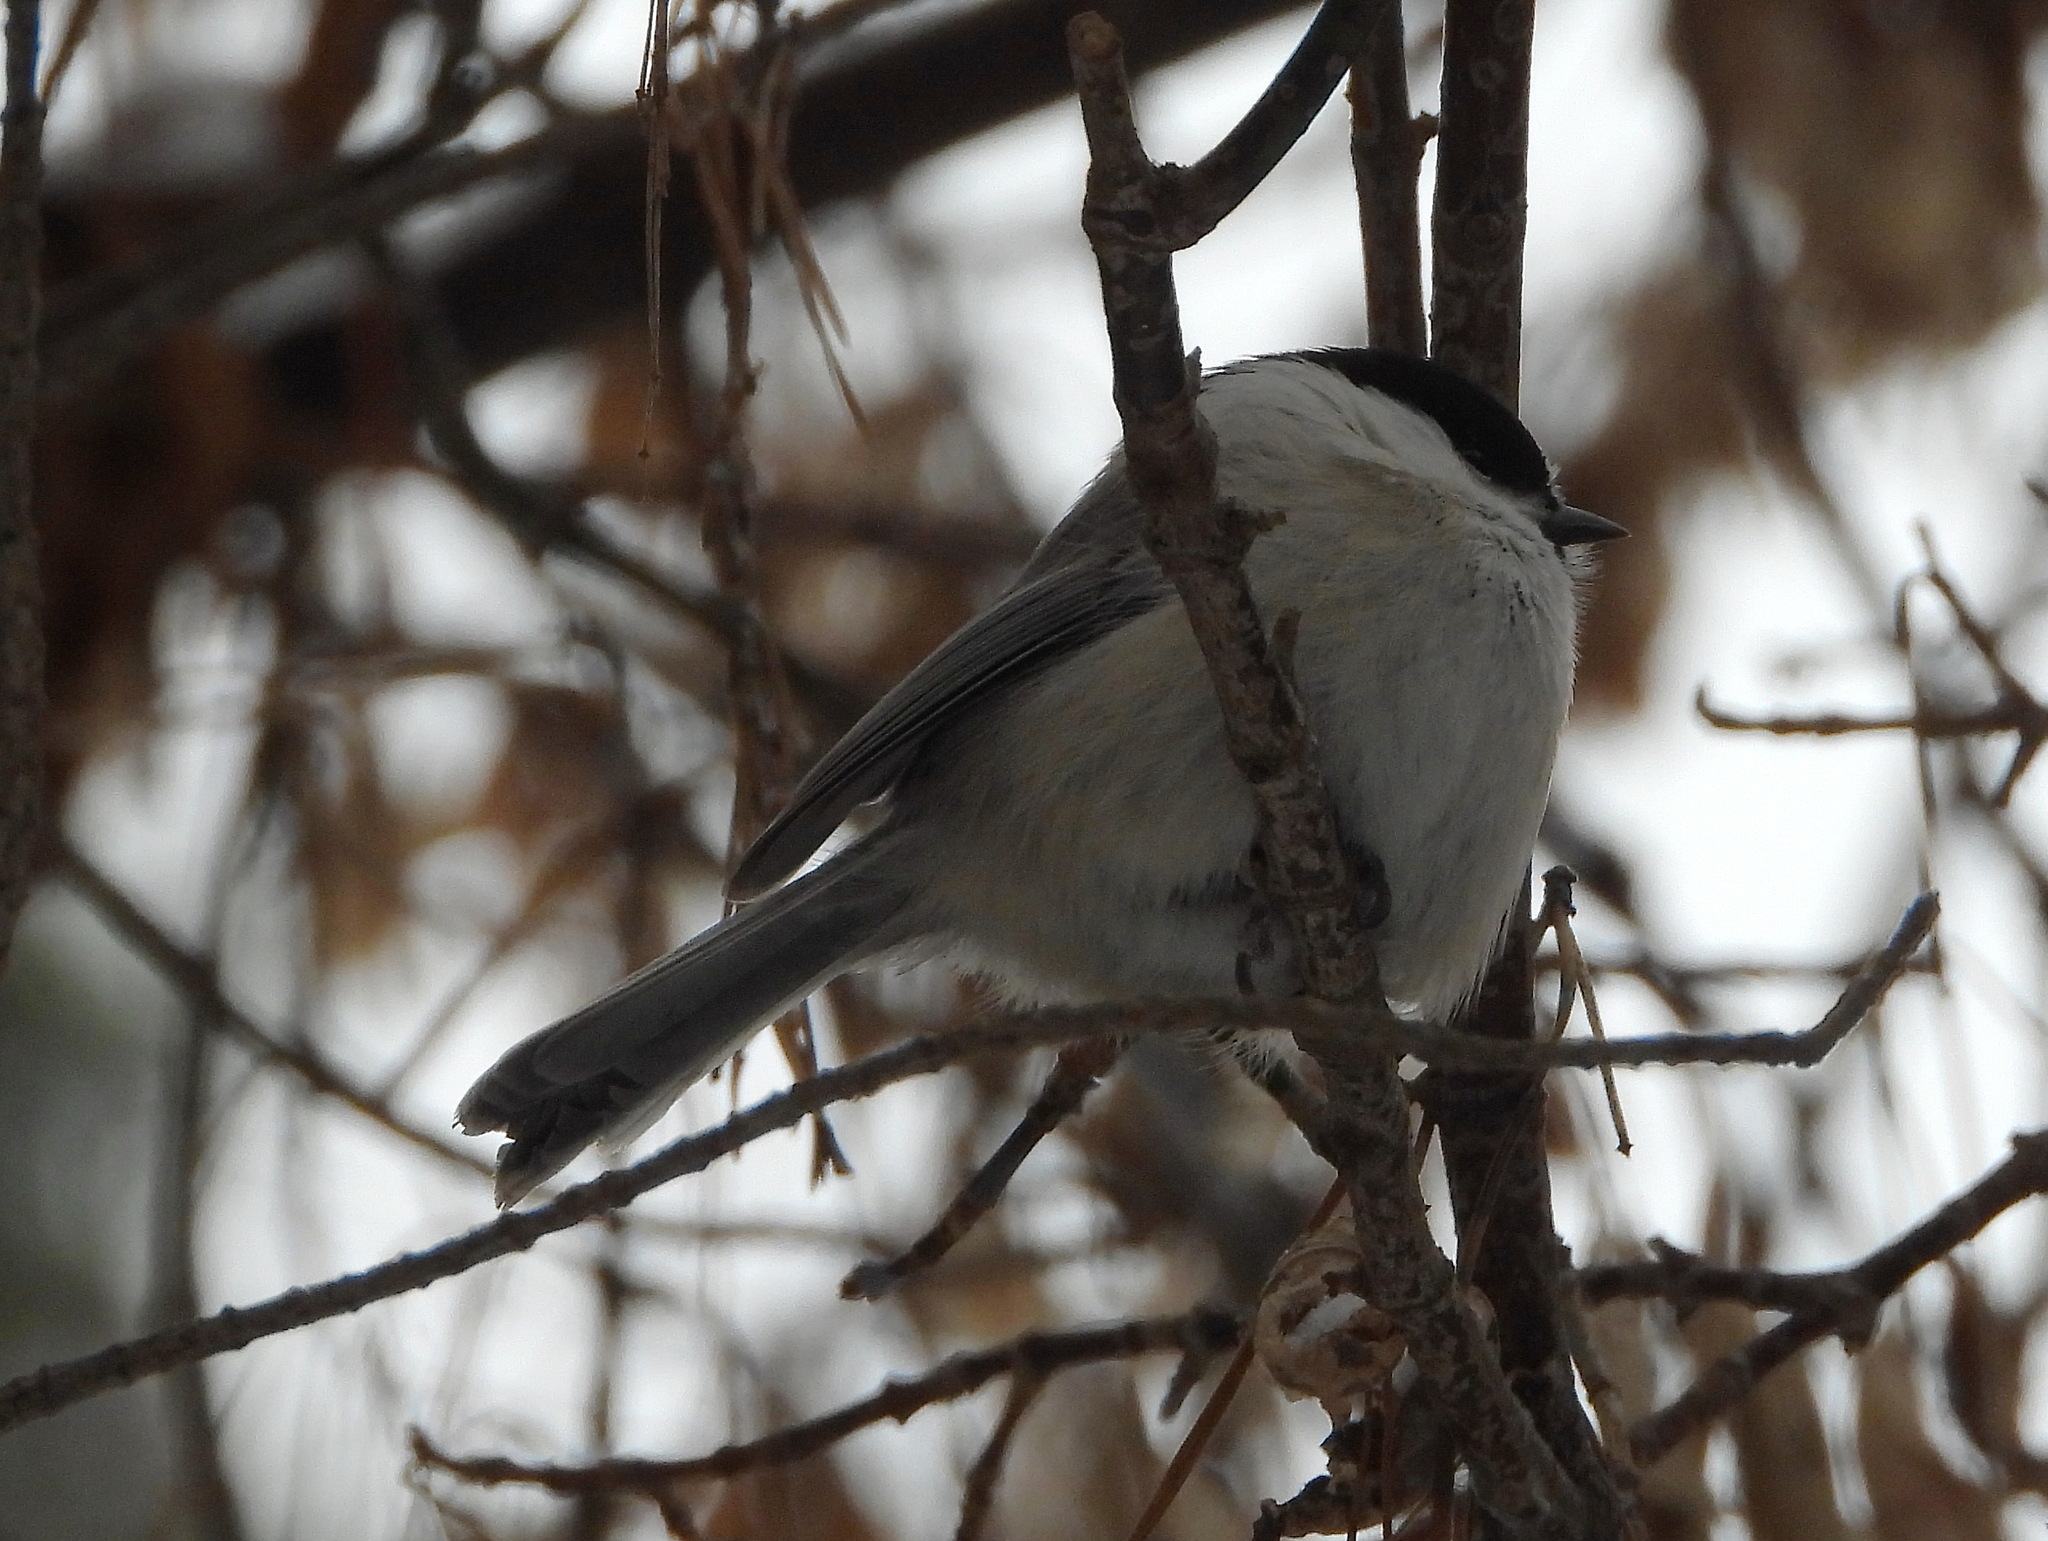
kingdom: Animalia
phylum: Chordata
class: Aves
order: Passeriformes
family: Paridae
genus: Poecile
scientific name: Poecile montanus
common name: Willow tit
